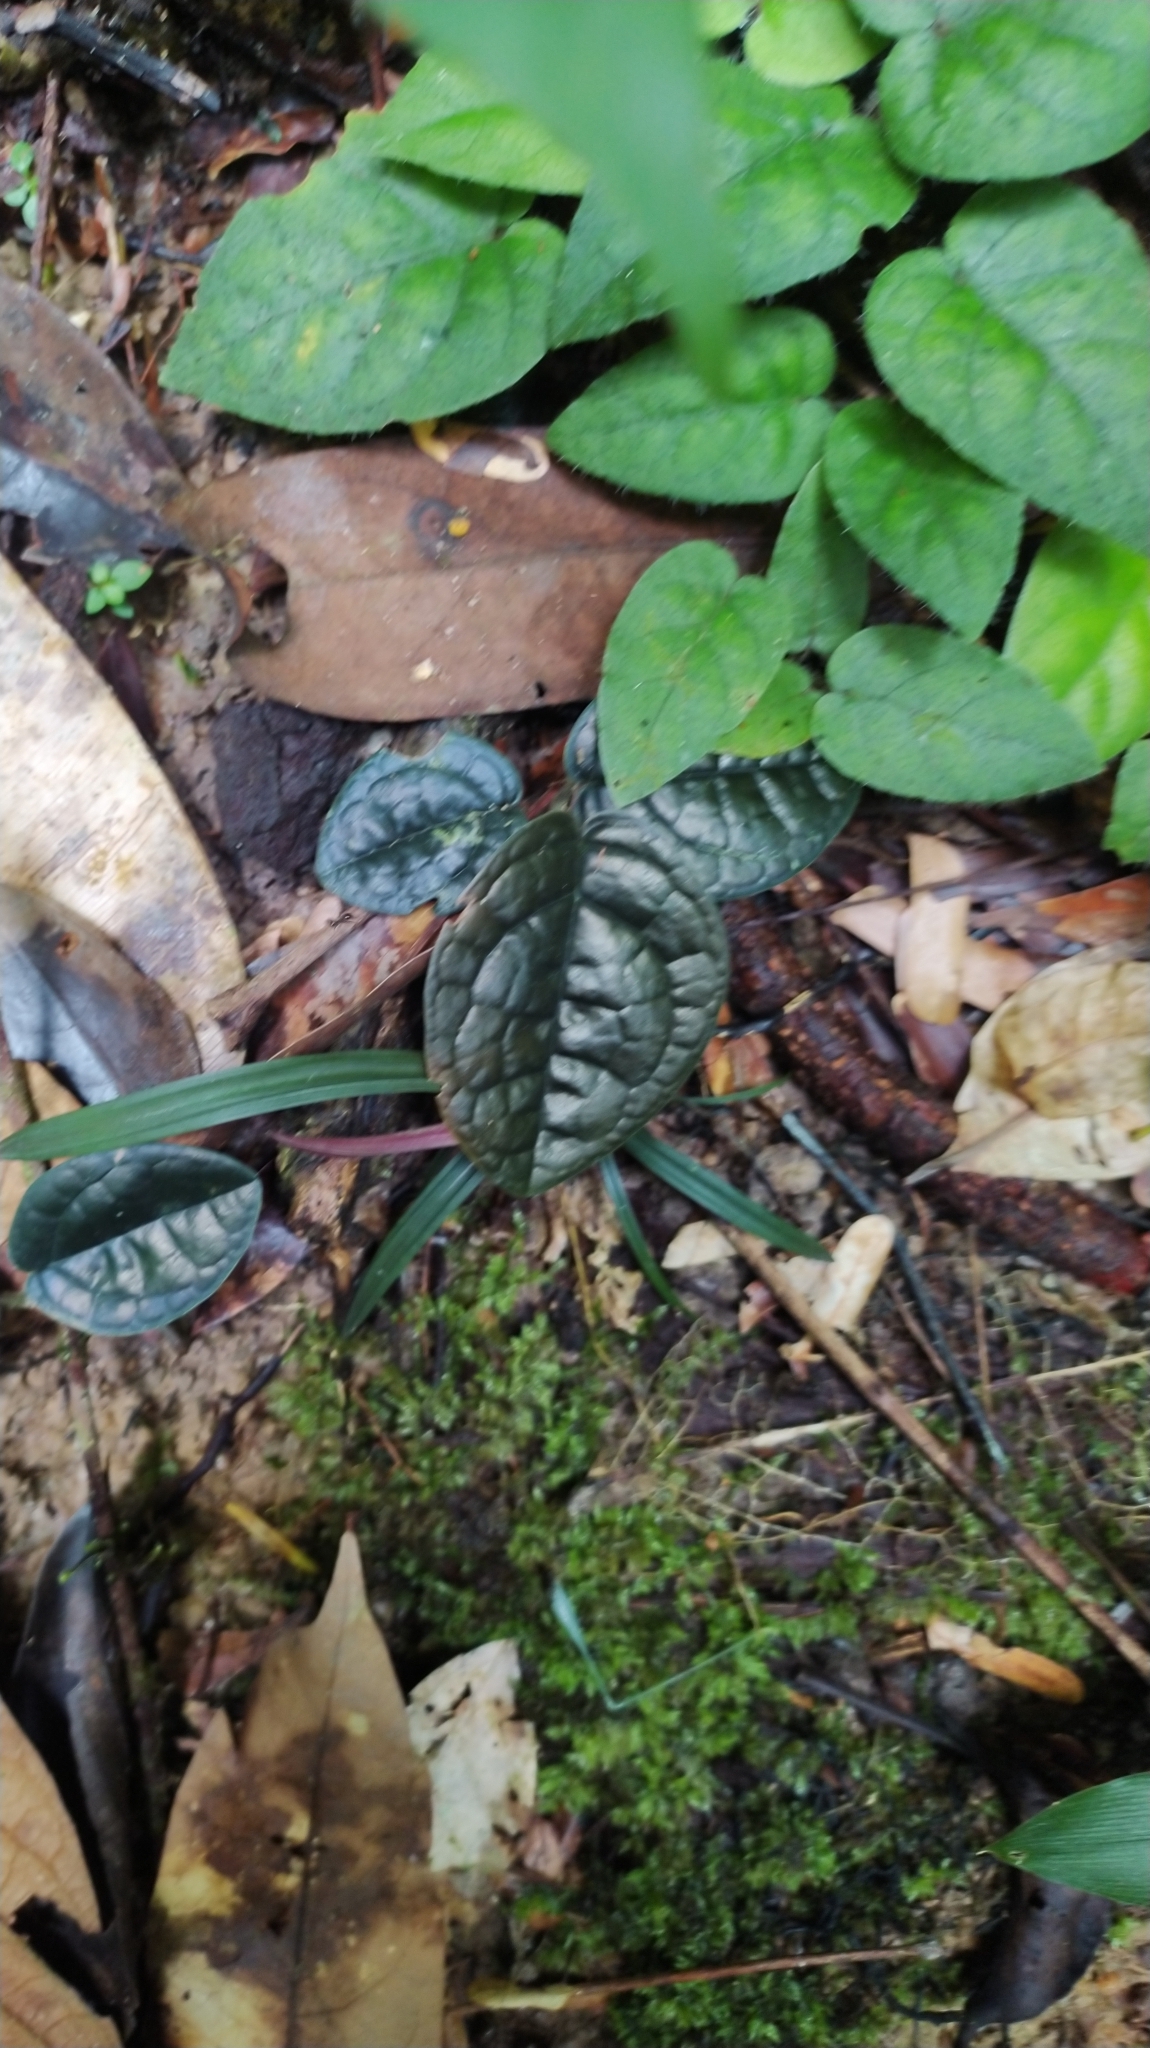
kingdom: Plantae
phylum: Tracheophyta
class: Magnoliopsida
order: Piperales
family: Piperaceae
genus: Piper
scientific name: Piper humistratum
